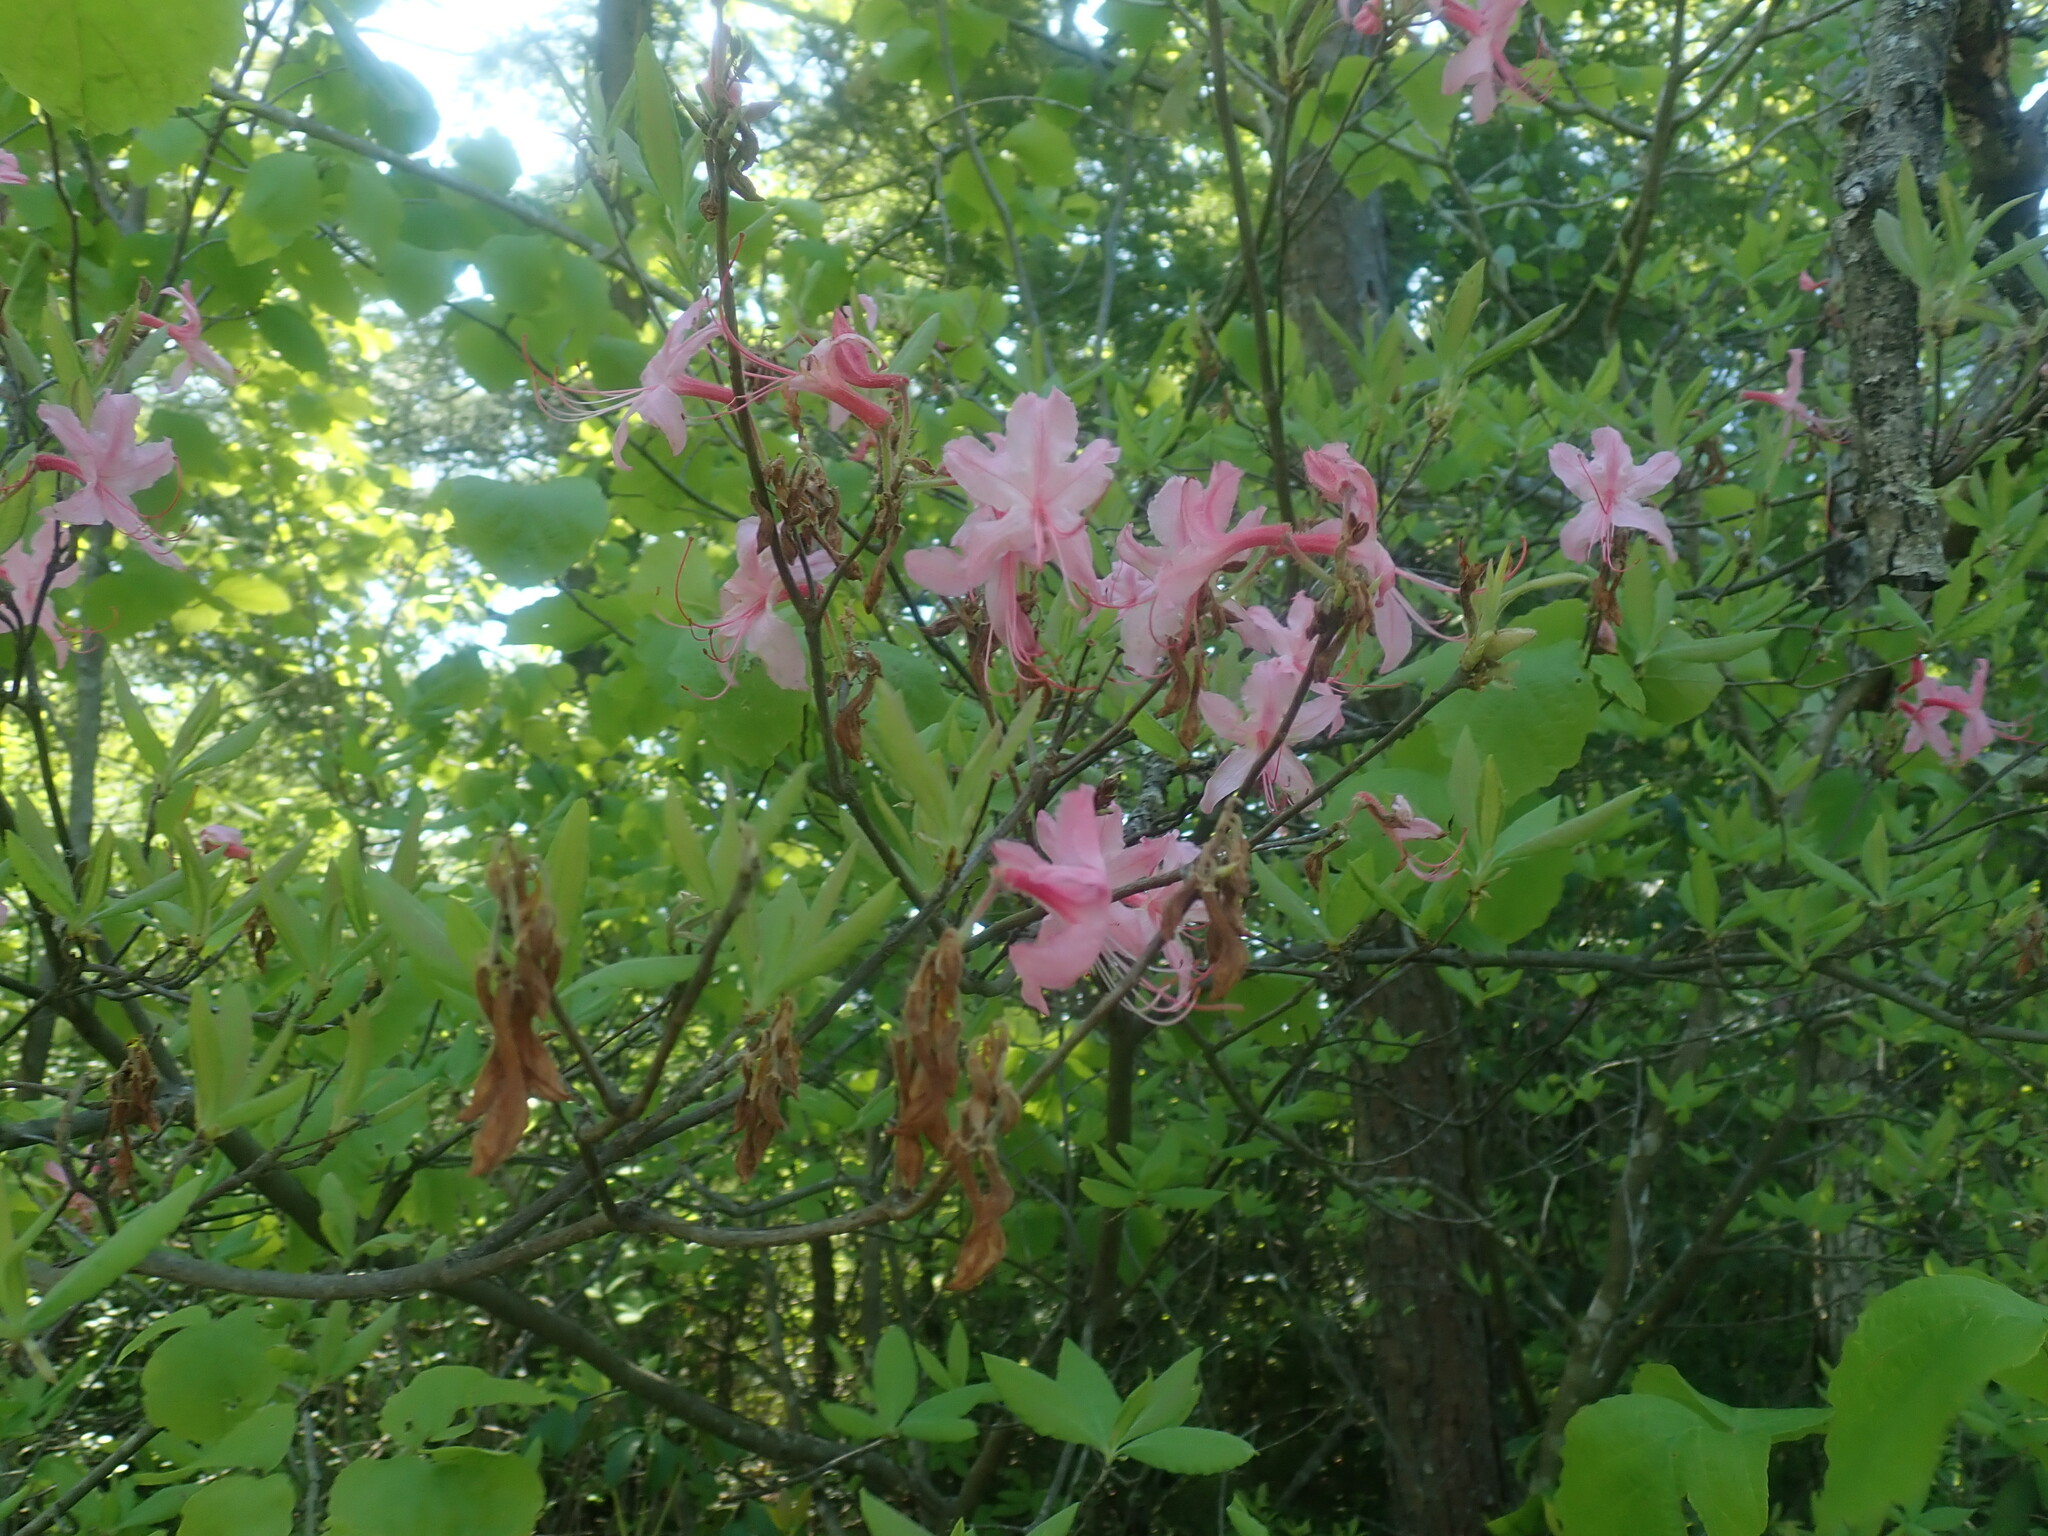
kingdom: Plantae
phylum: Tracheophyta
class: Magnoliopsida
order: Ericales
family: Ericaceae
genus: Rhododendron
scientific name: Rhododendron roseum
